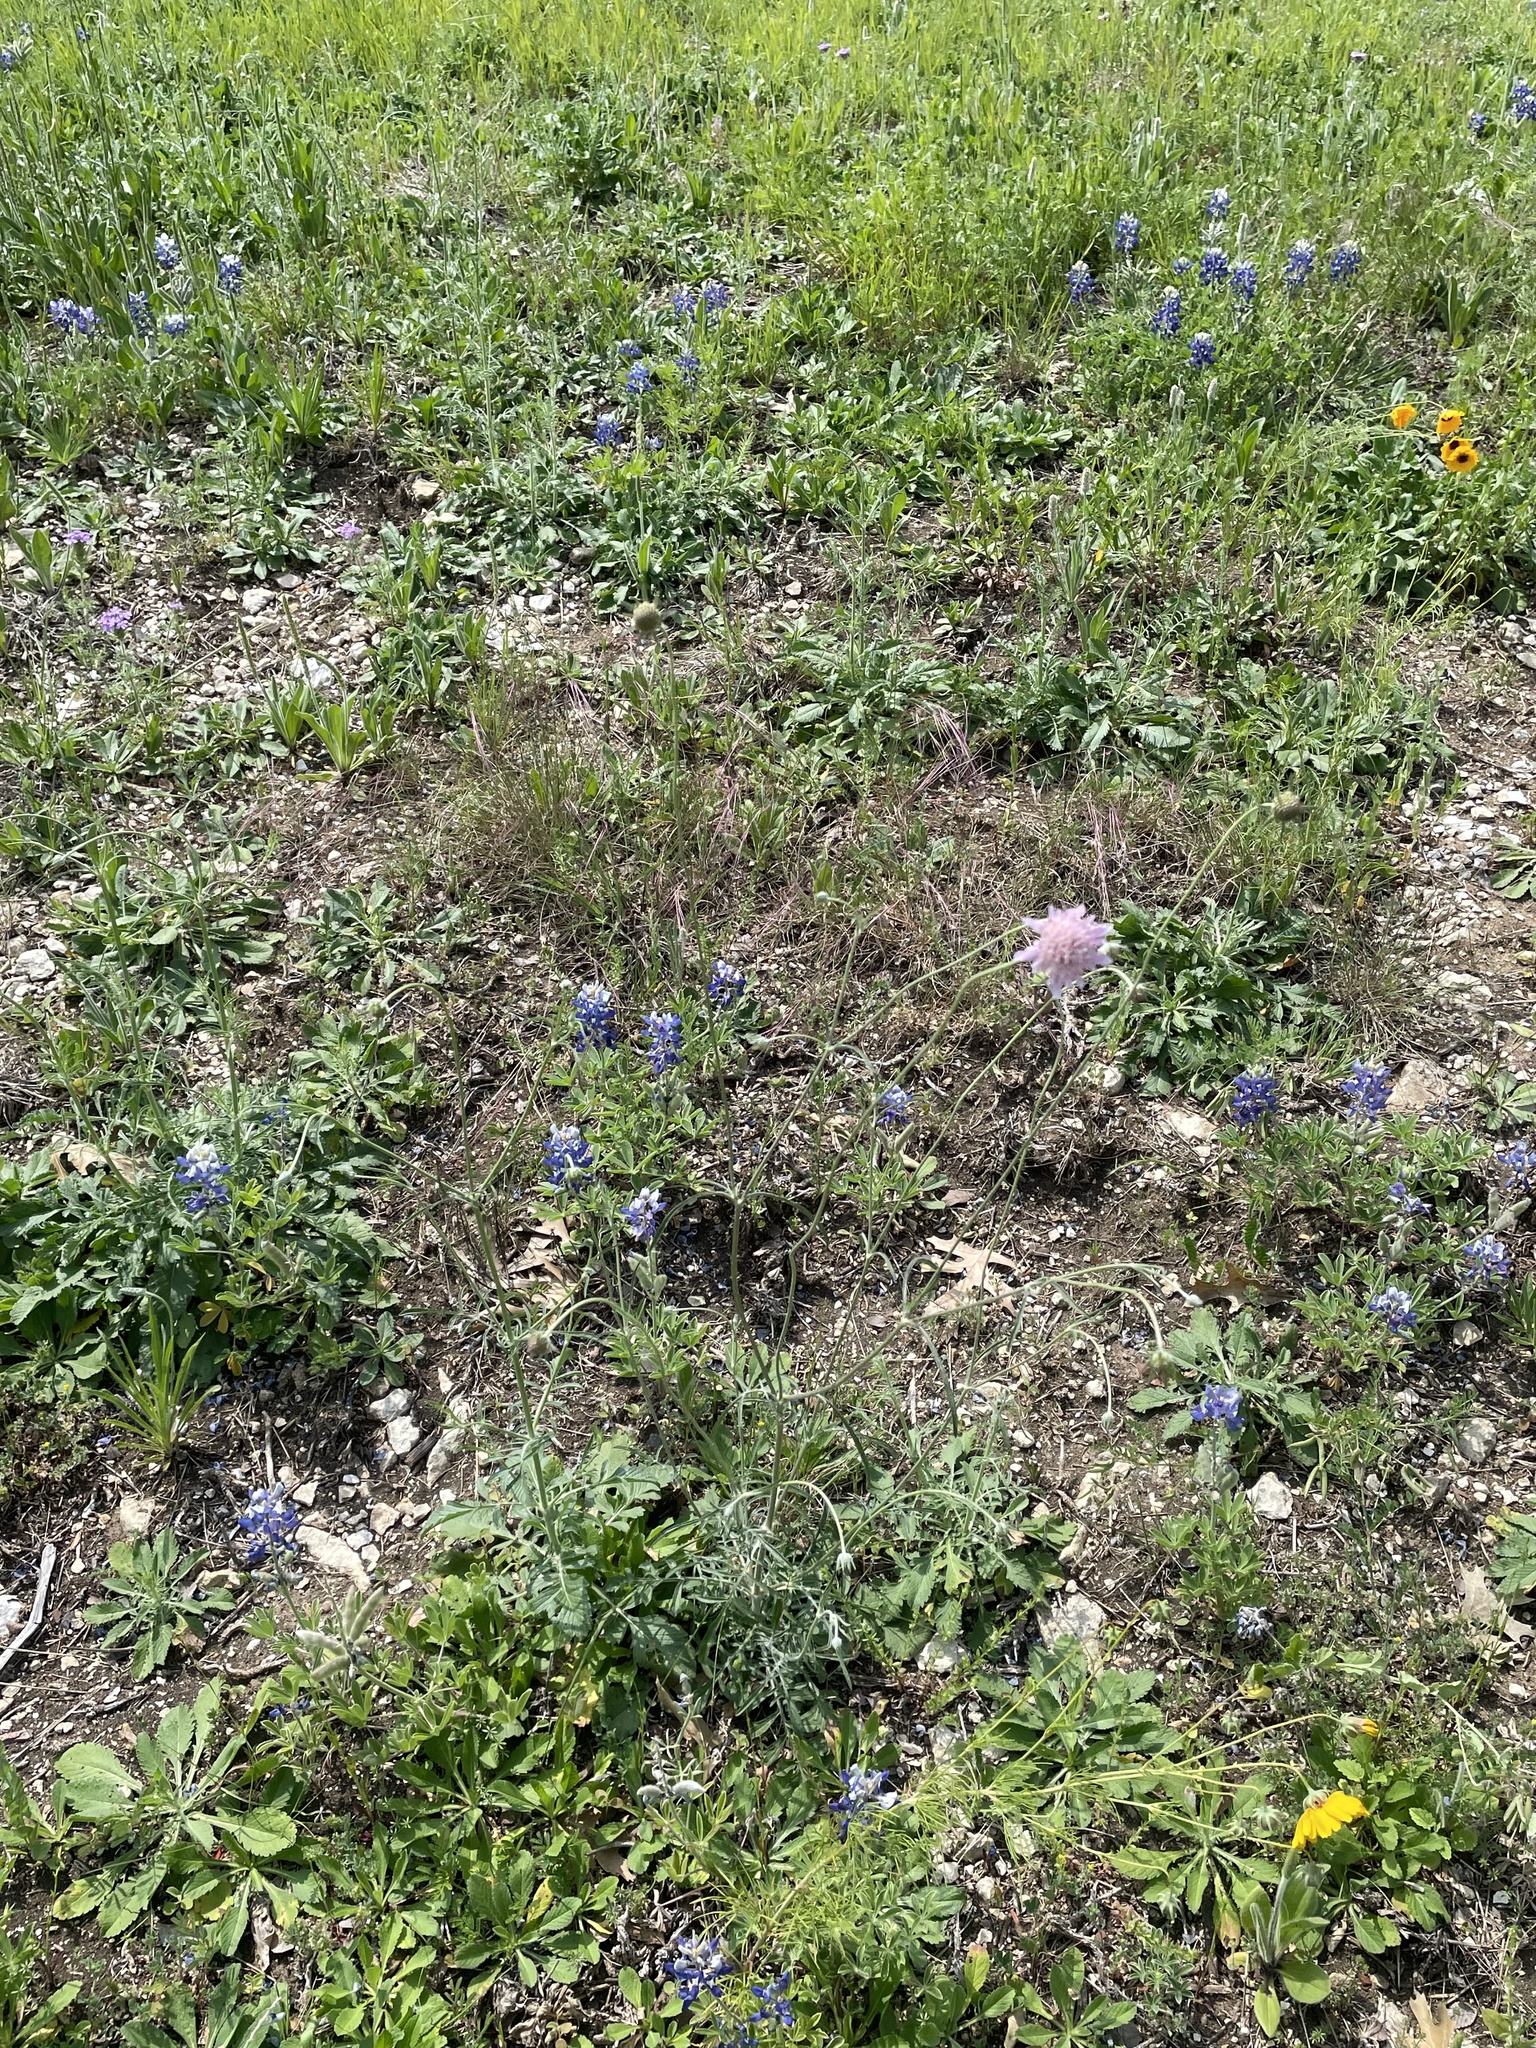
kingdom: Plantae
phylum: Tracheophyta
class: Magnoliopsida
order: Dipsacales
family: Caprifoliaceae
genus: Sixalix
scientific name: Sixalix atropurpurea
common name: Sweet scabious
